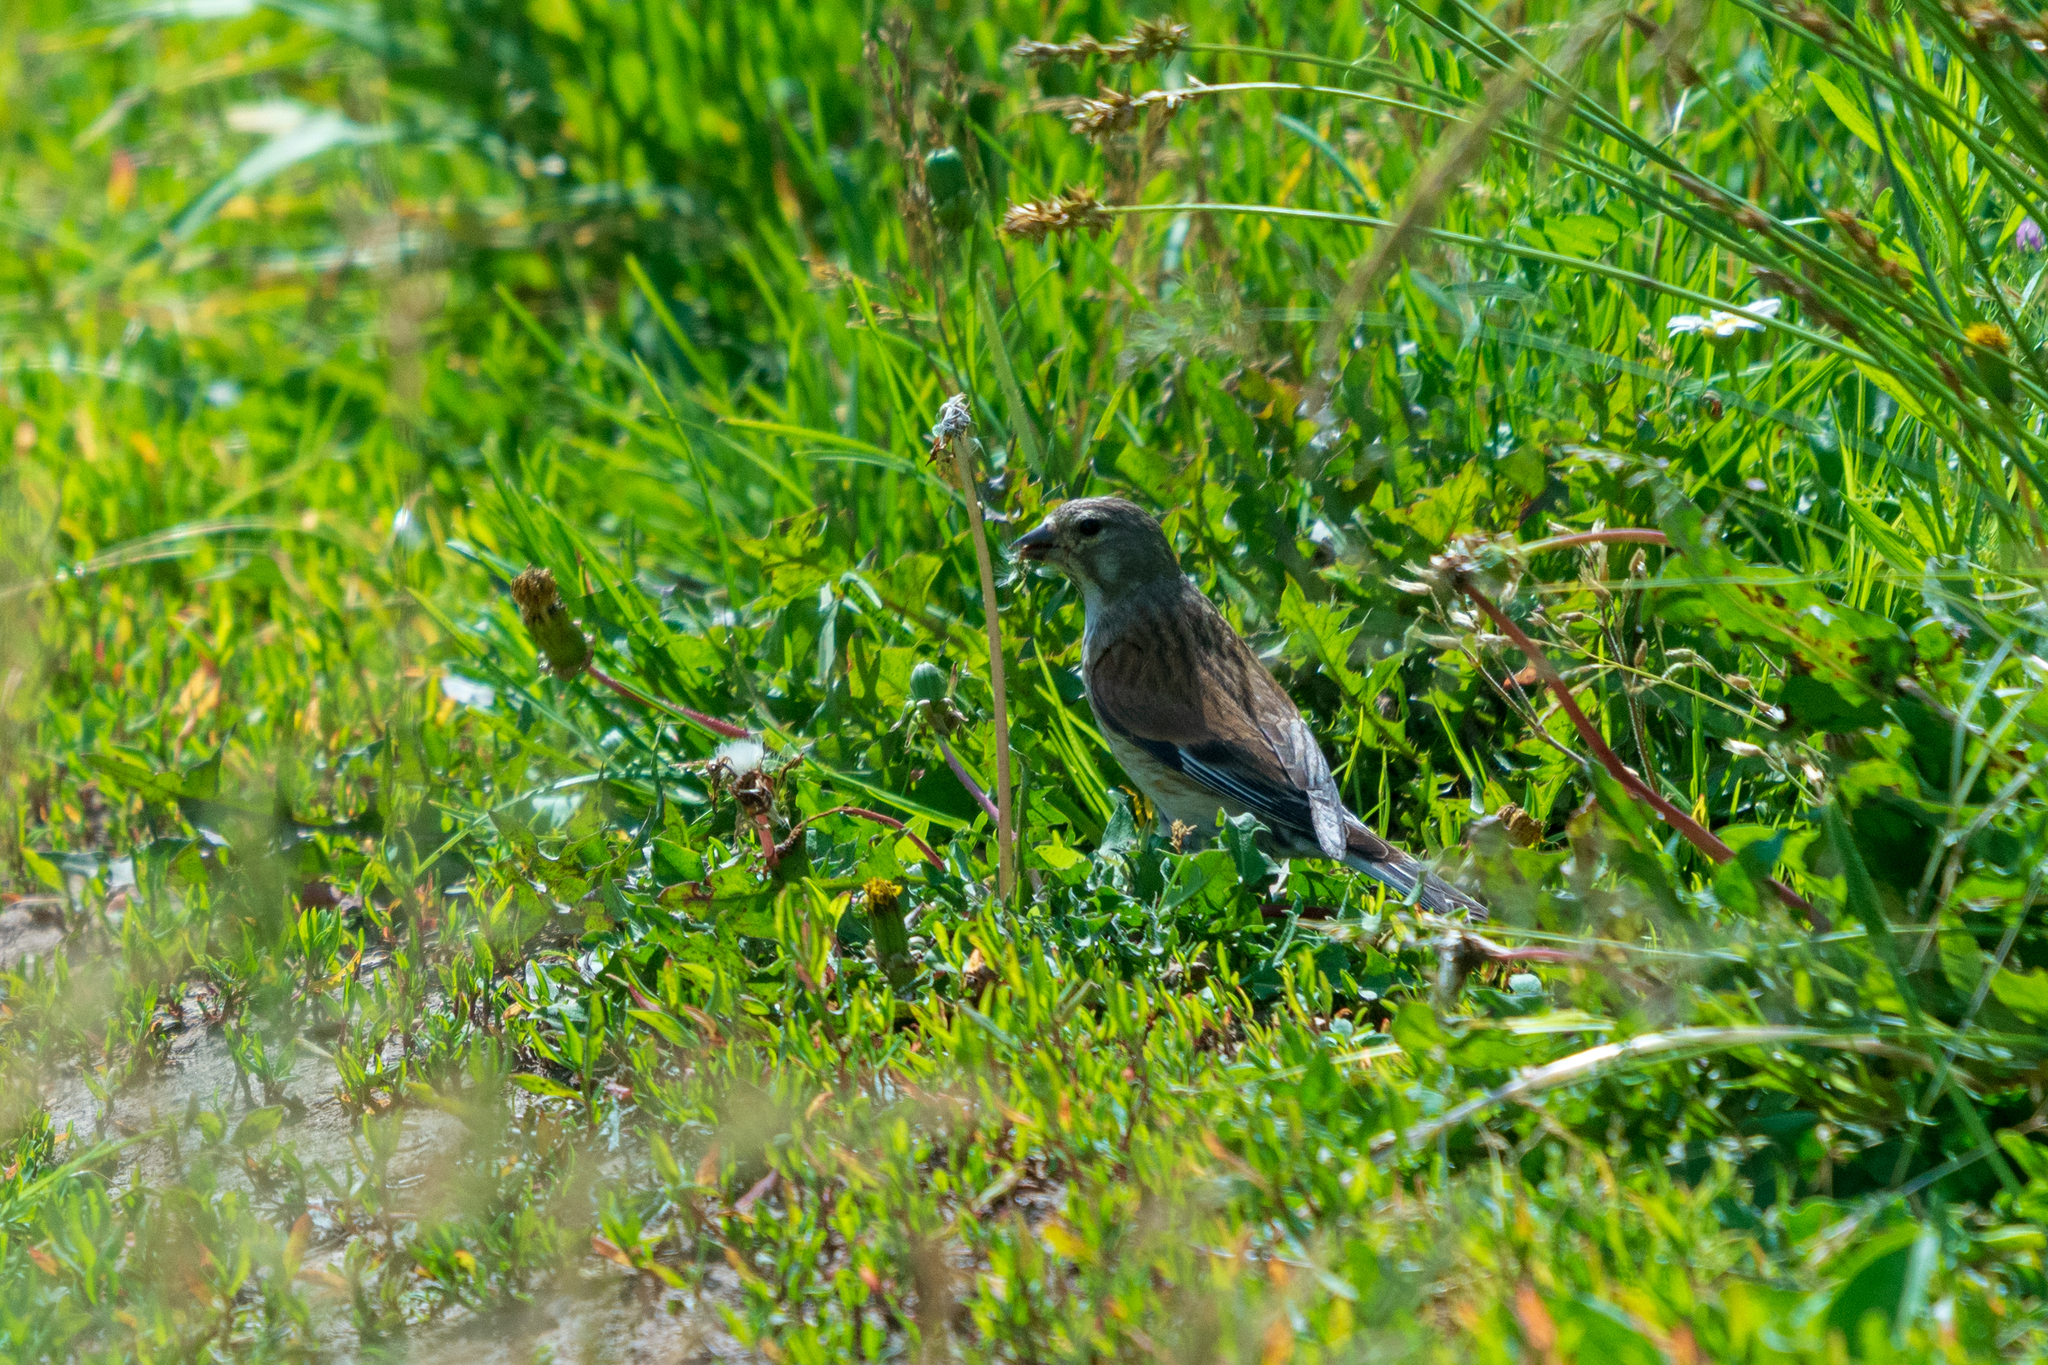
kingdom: Animalia
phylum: Chordata
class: Aves
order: Passeriformes
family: Fringillidae
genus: Linaria
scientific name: Linaria cannabina
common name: Common linnet
